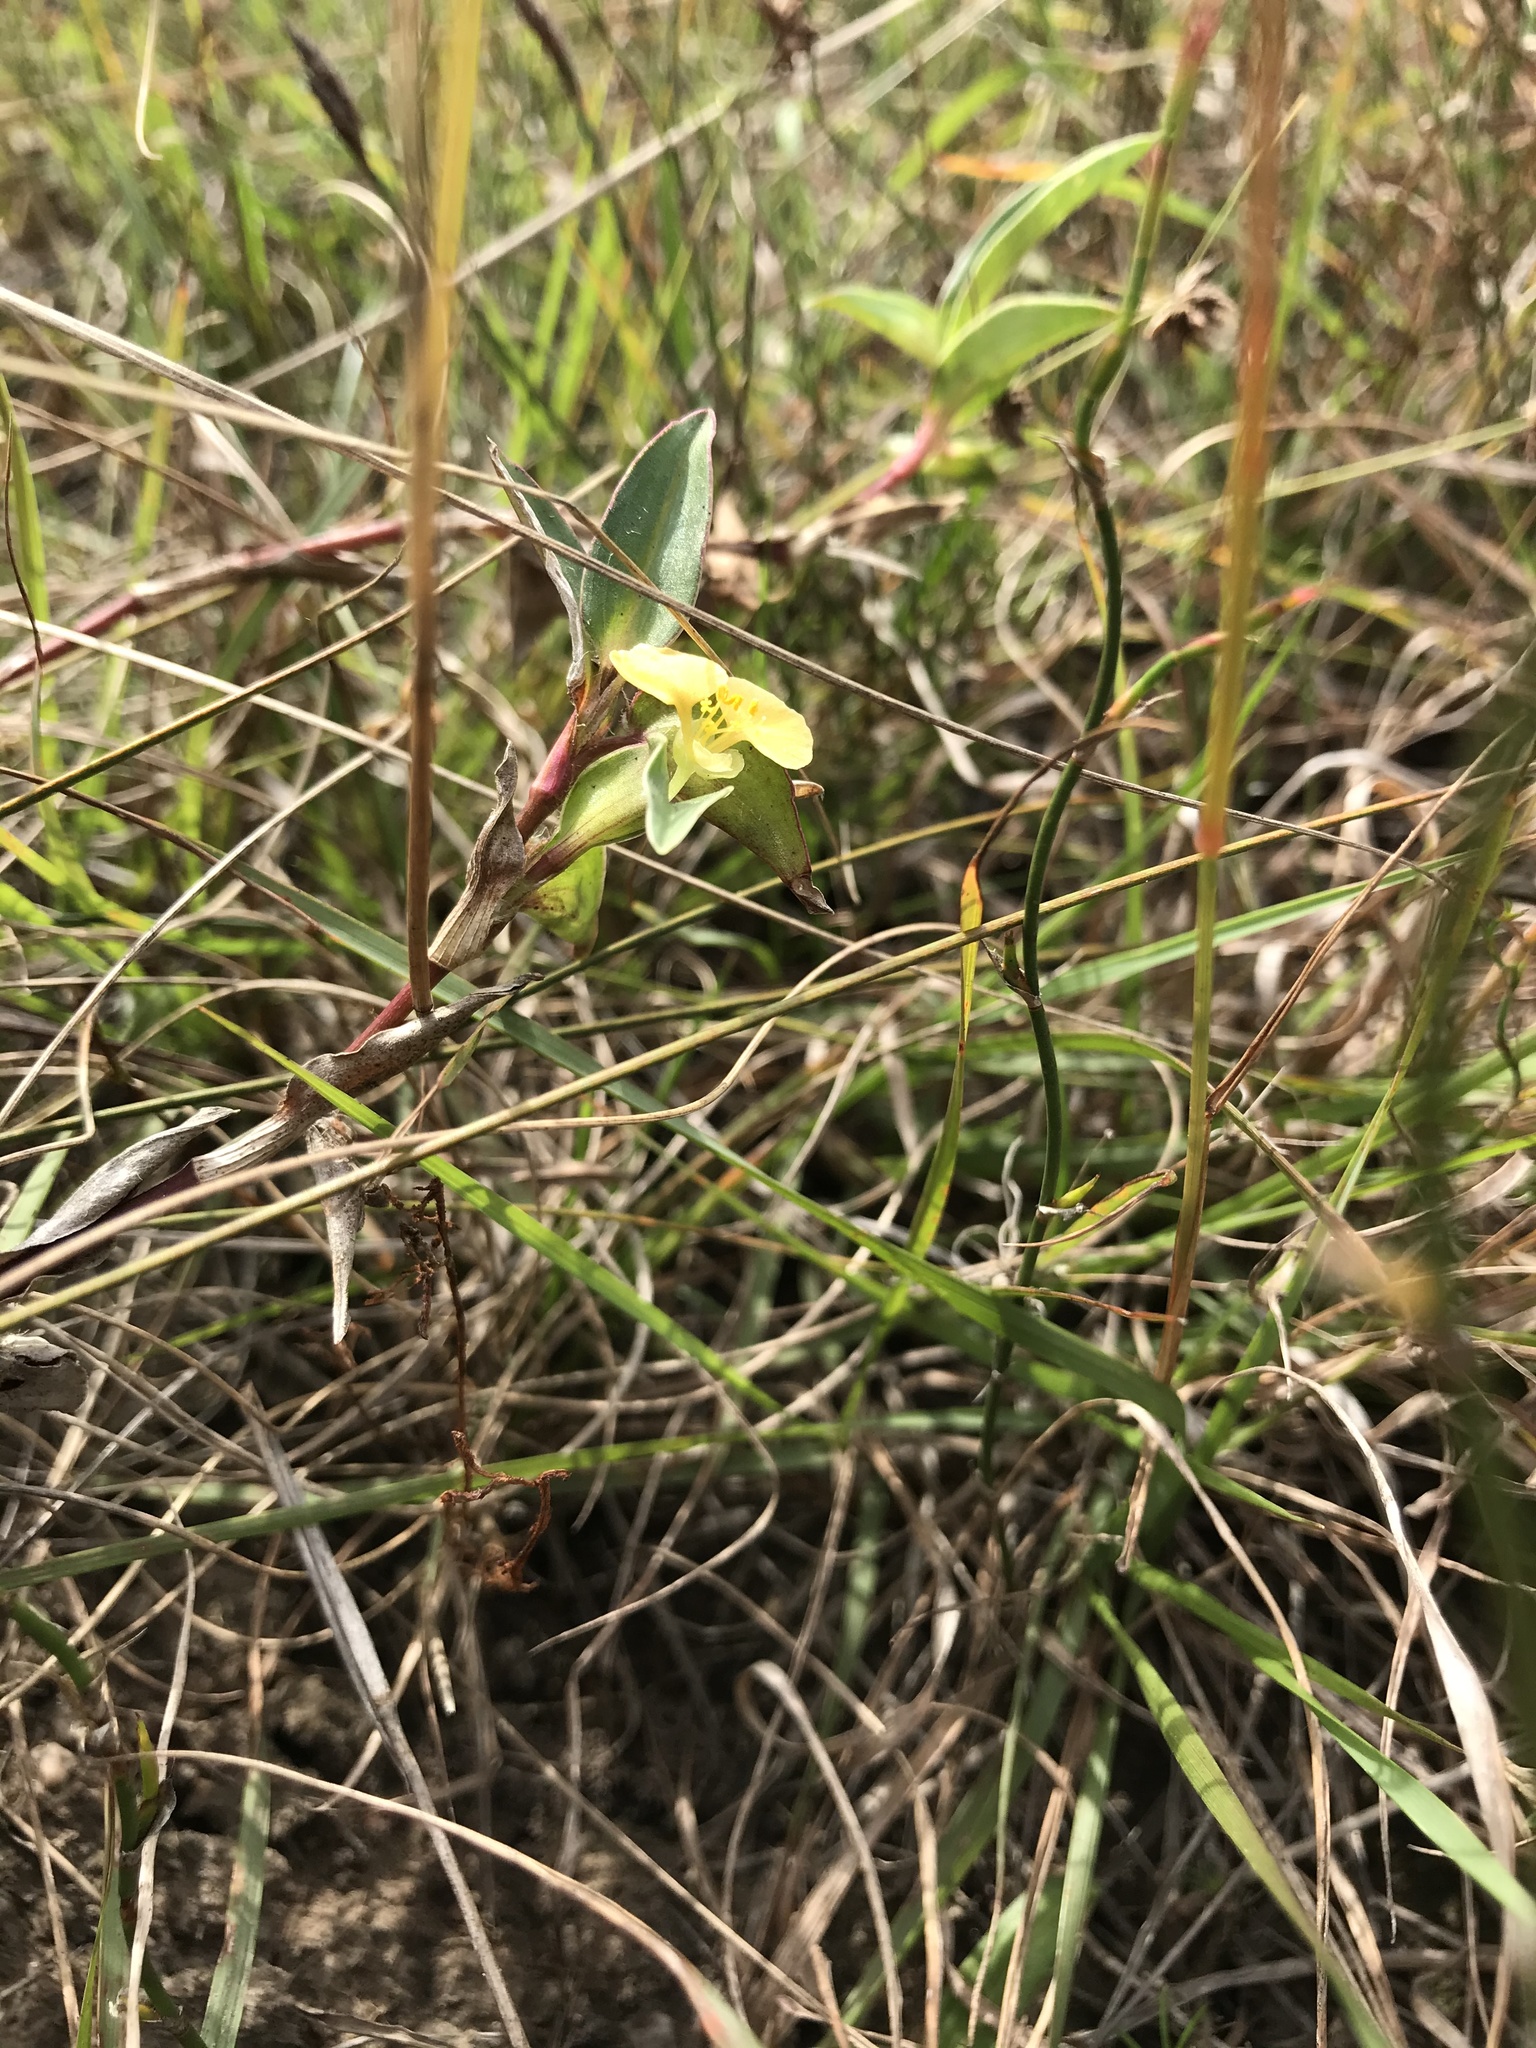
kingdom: Plantae
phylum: Tracheophyta
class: Liliopsida
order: Commelinales
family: Commelinaceae
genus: Commelina
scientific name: Commelina africana
